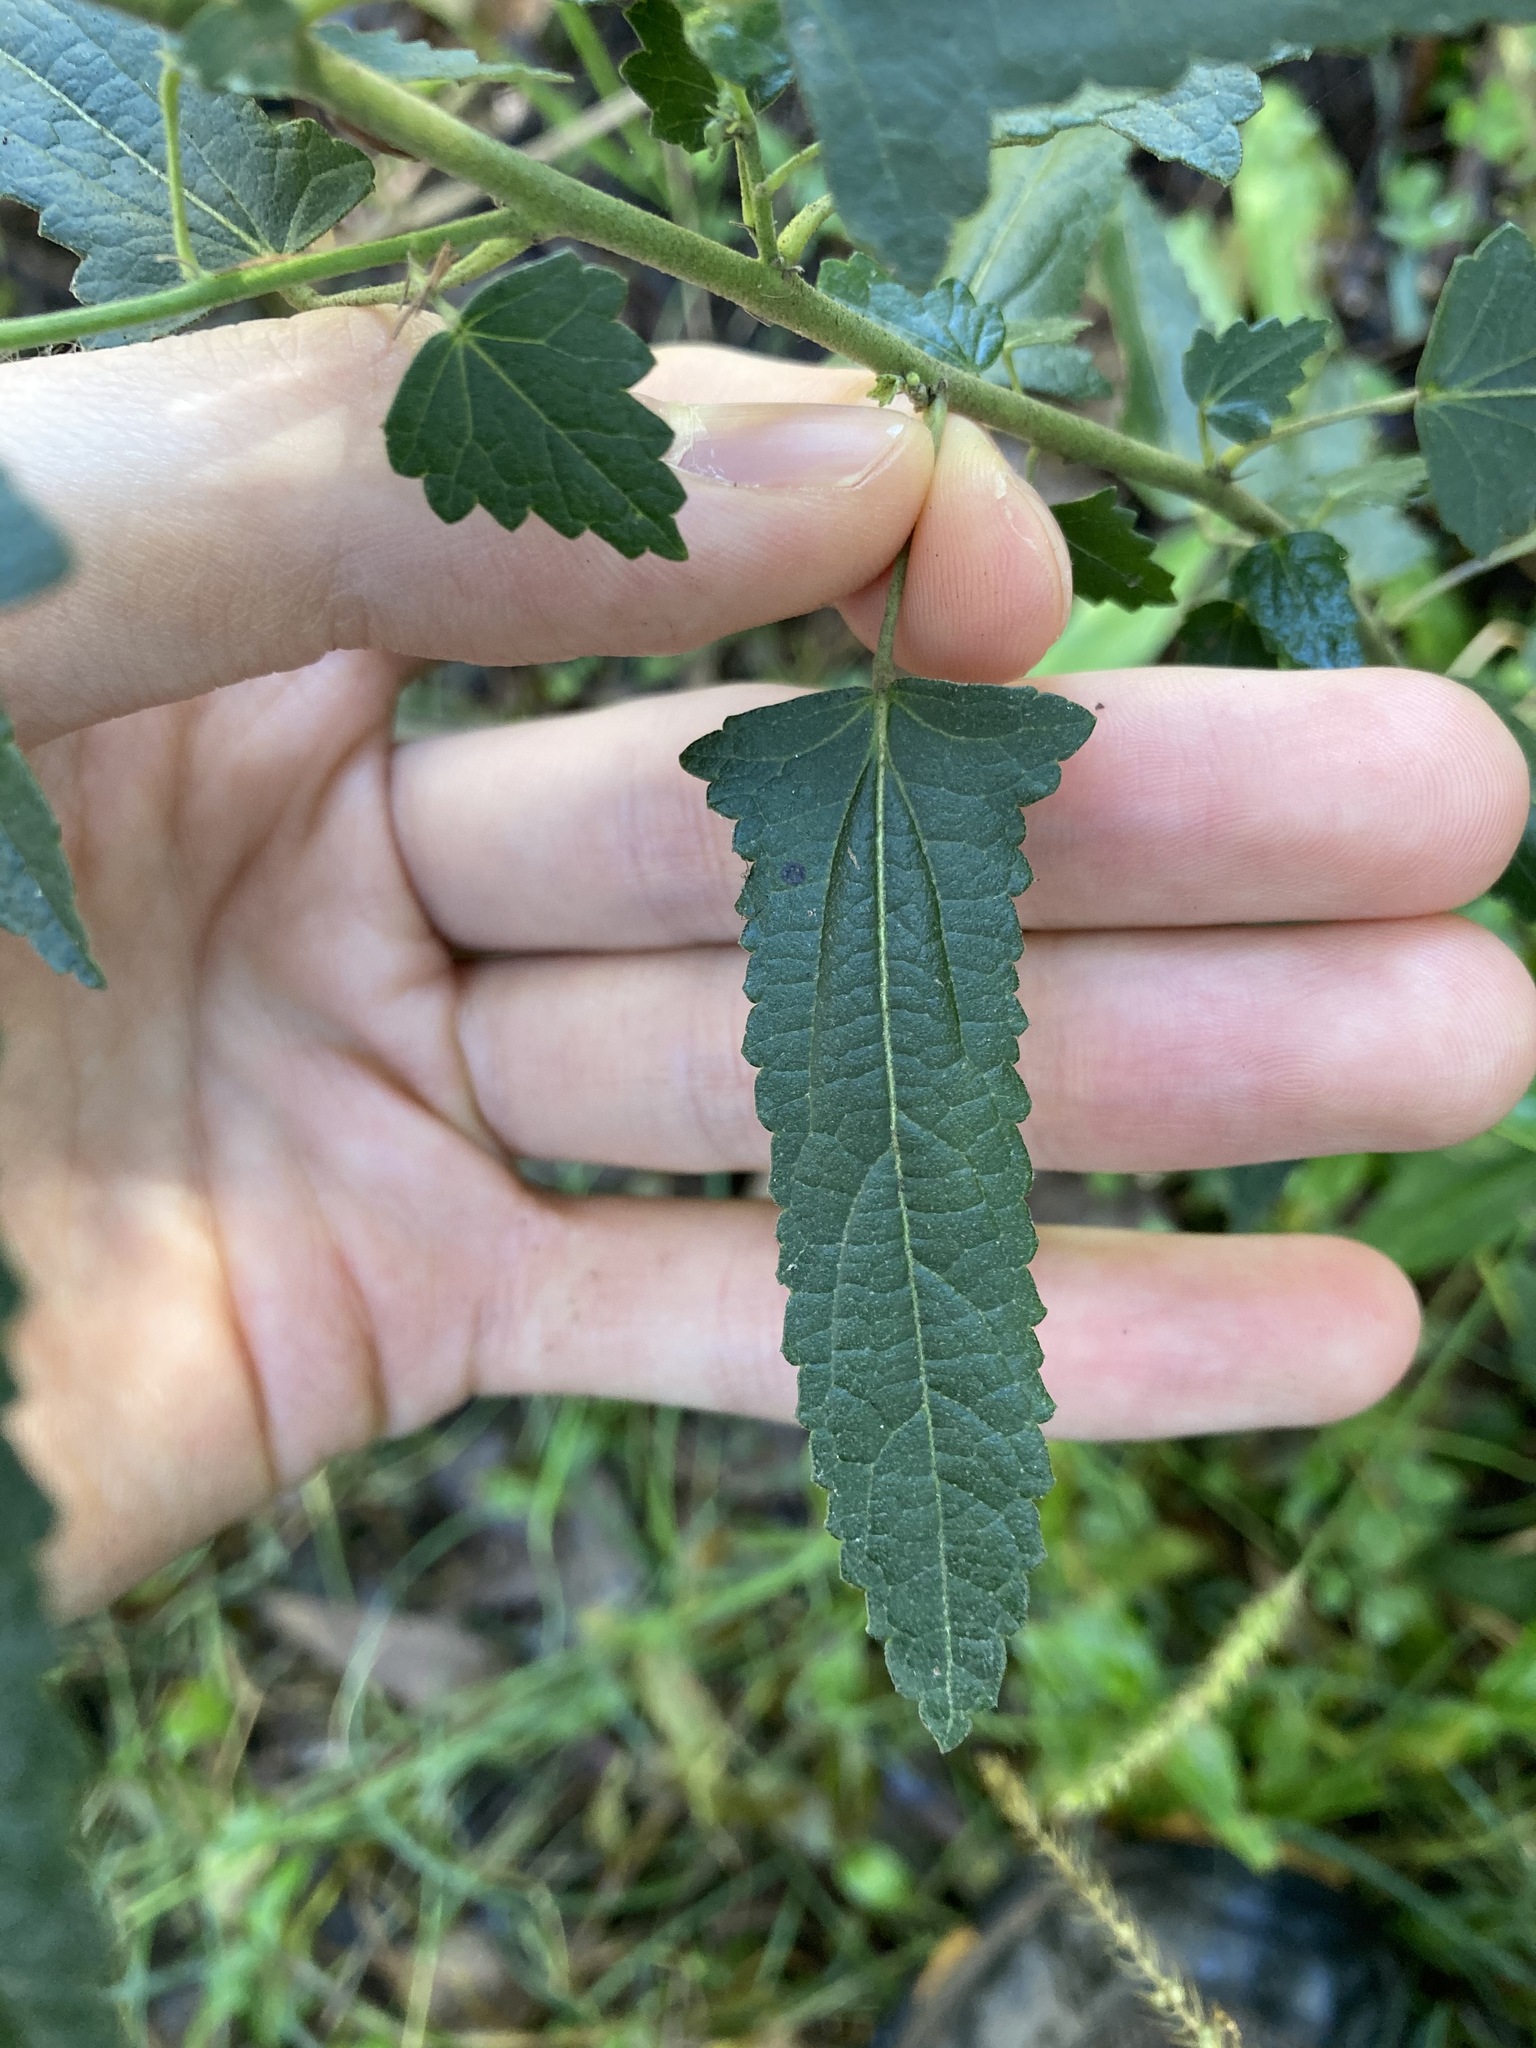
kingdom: Plantae
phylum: Tracheophyta
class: Magnoliopsida
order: Malvales
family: Malvaceae
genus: Pavonia
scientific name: Pavonia hastata
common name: Spearleaf swampmallow
